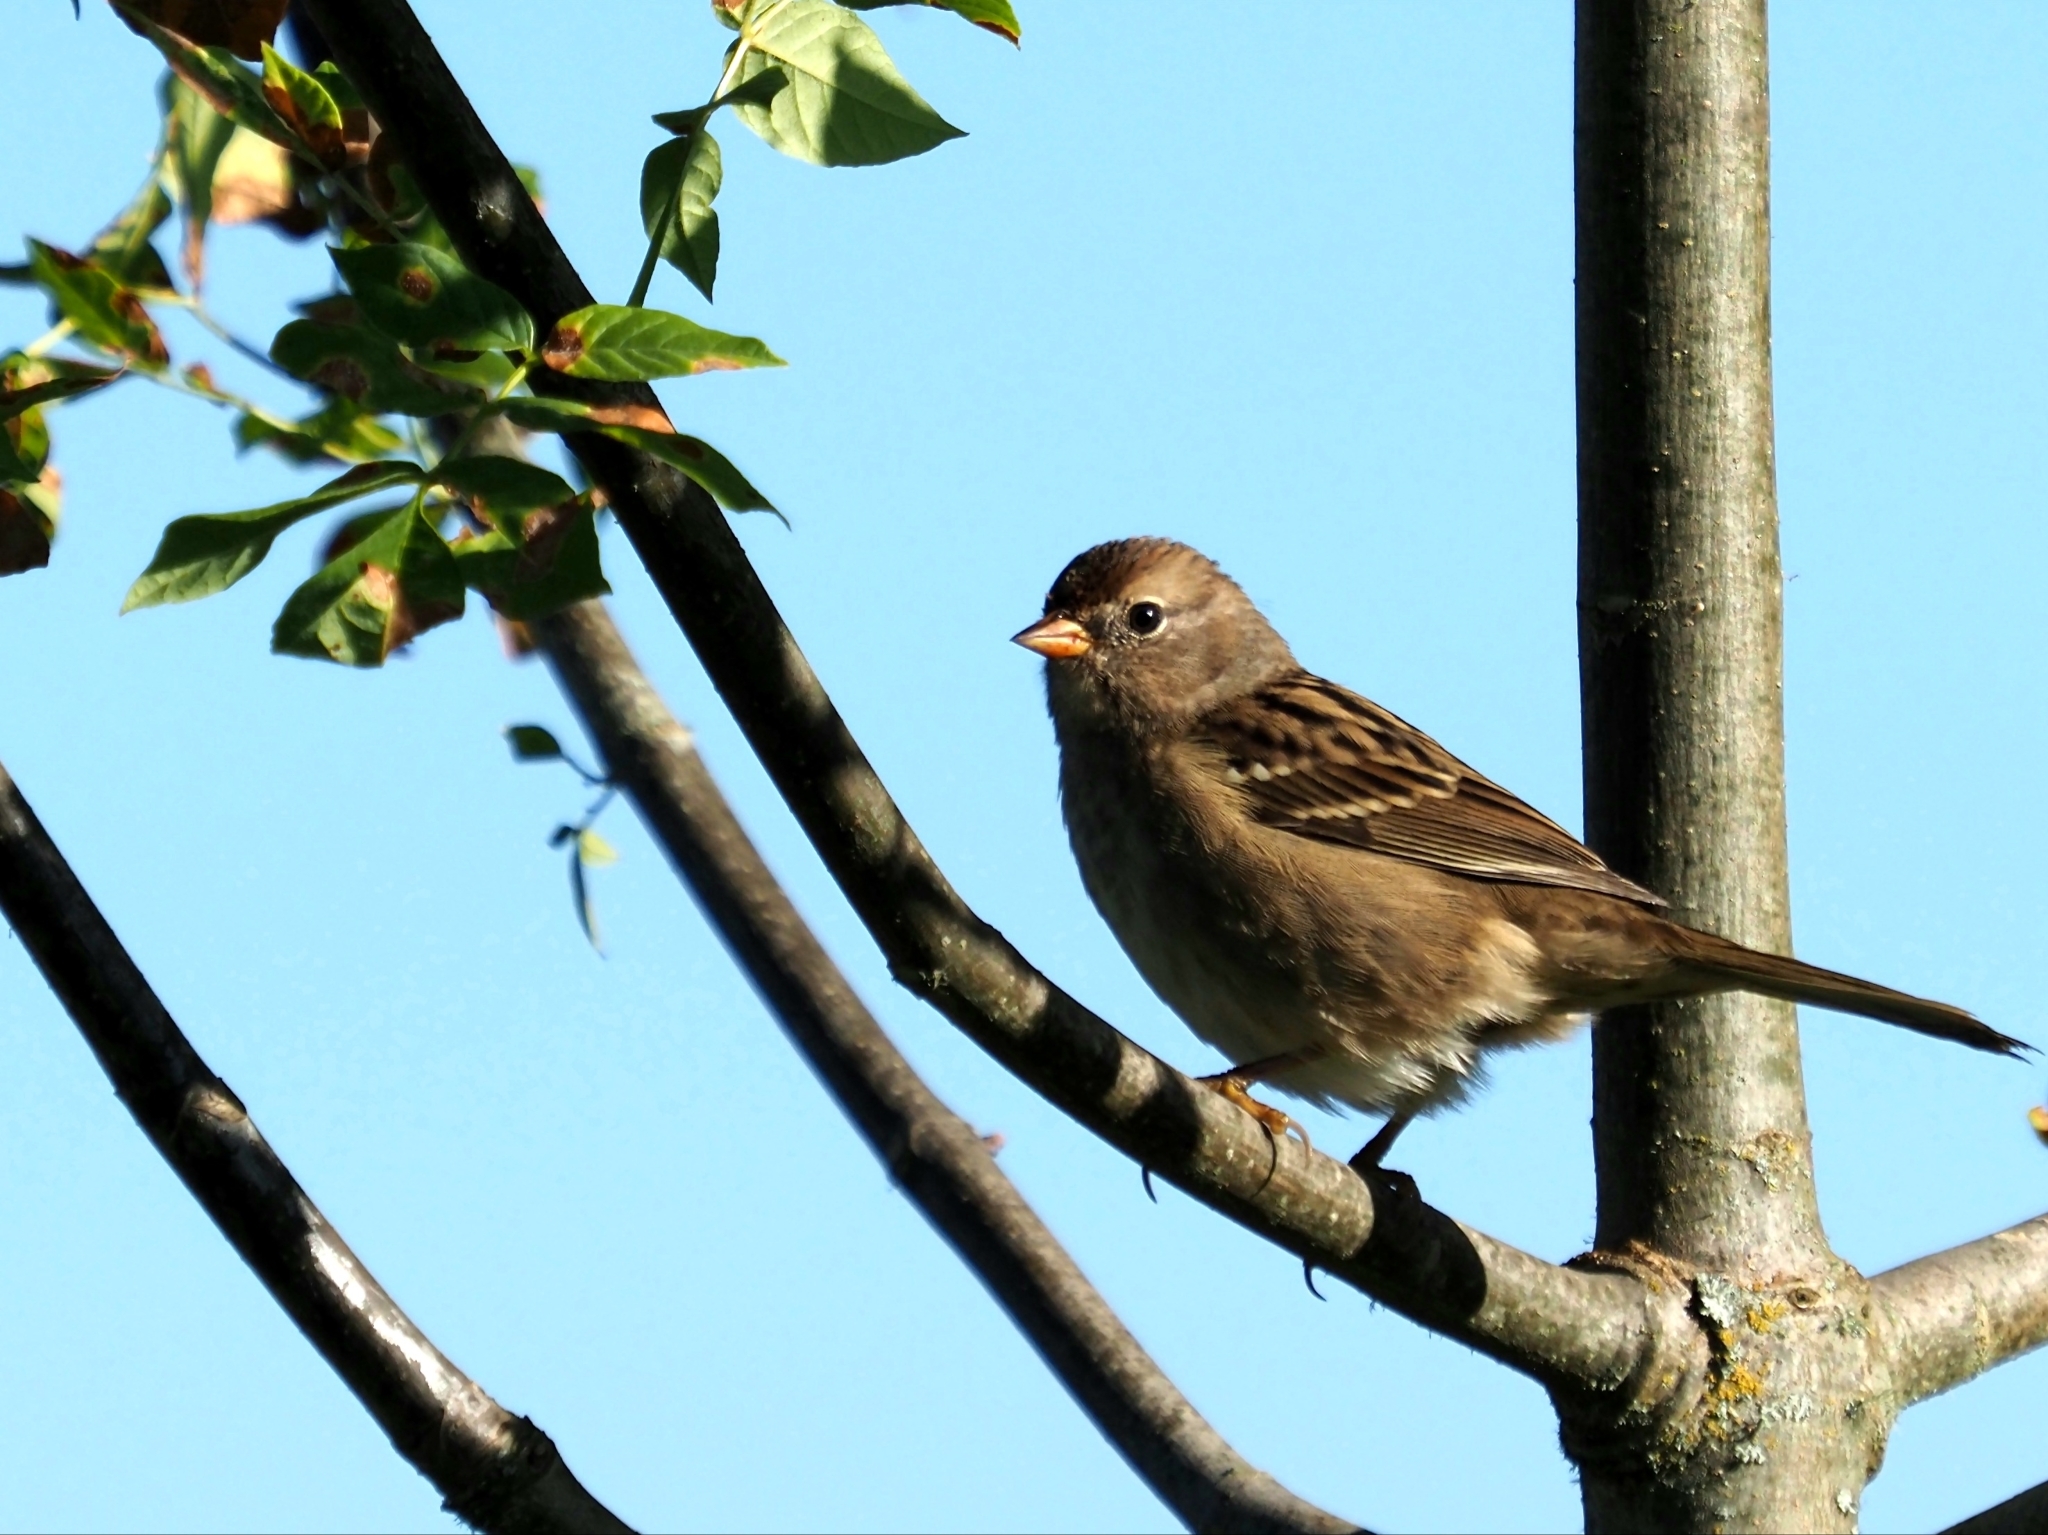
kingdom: Animalia
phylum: Chordata
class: Aves
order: Passeriformes
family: Passerellidae
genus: Zonotrichia
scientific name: Zonotrichia leucophrys
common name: White-crowned sparrow
